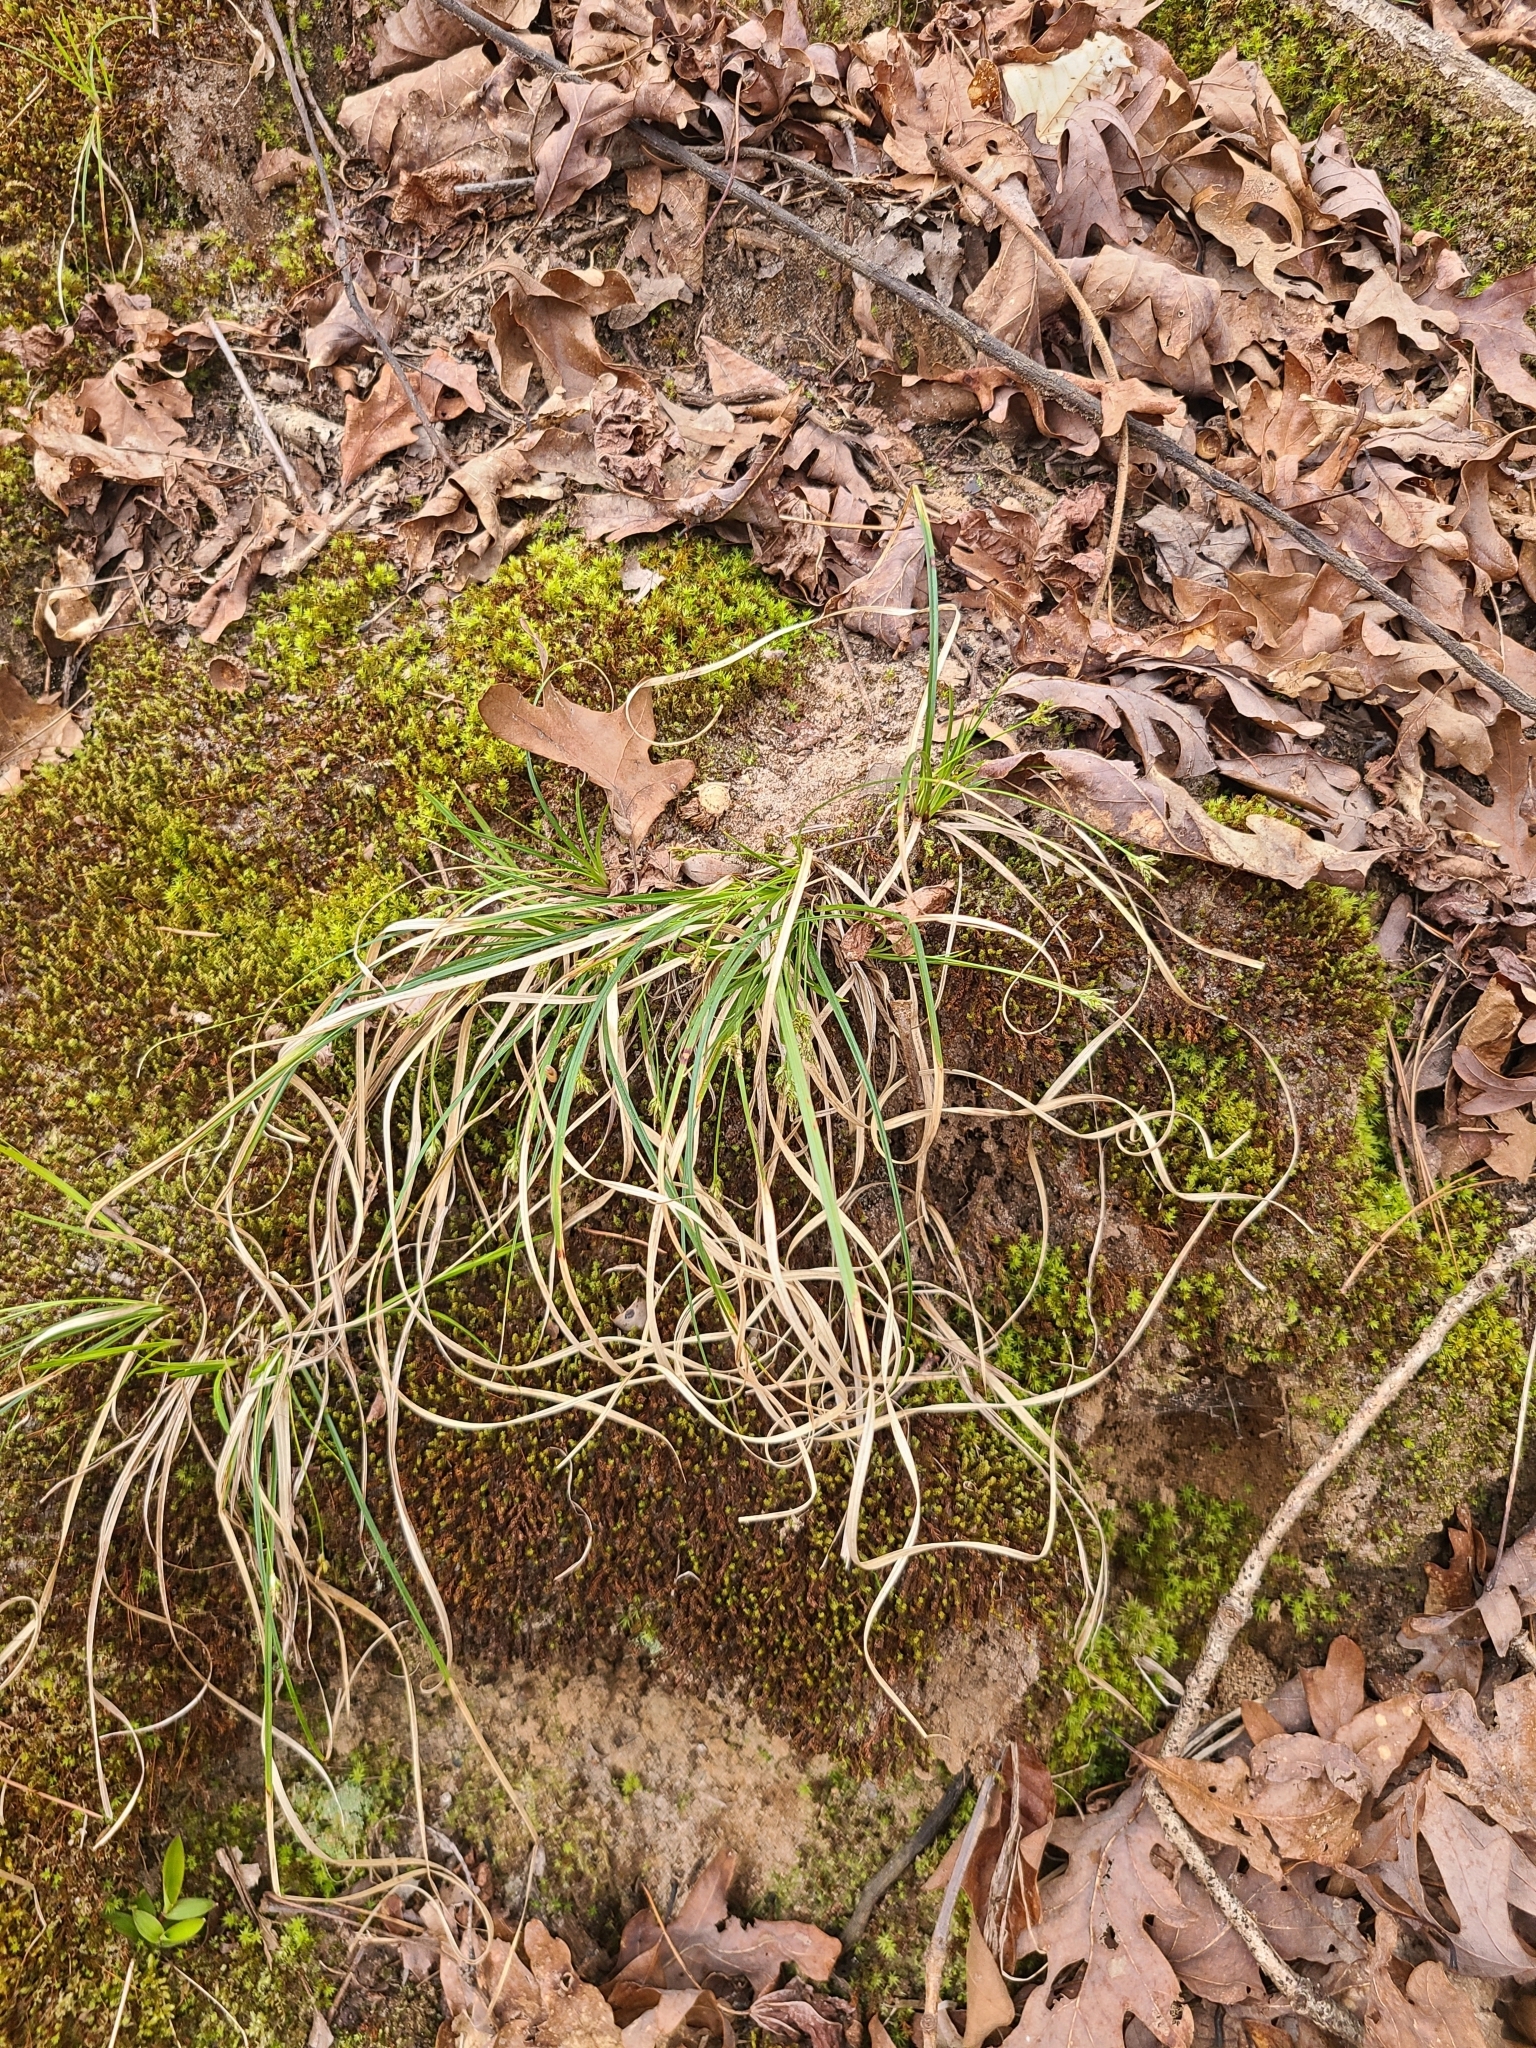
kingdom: Plantae
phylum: Tracheophyta
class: Liliopsida
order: Poales
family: Cyperaceae
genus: Carex
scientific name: Carex nigromarginata
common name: Black-edged sedge
